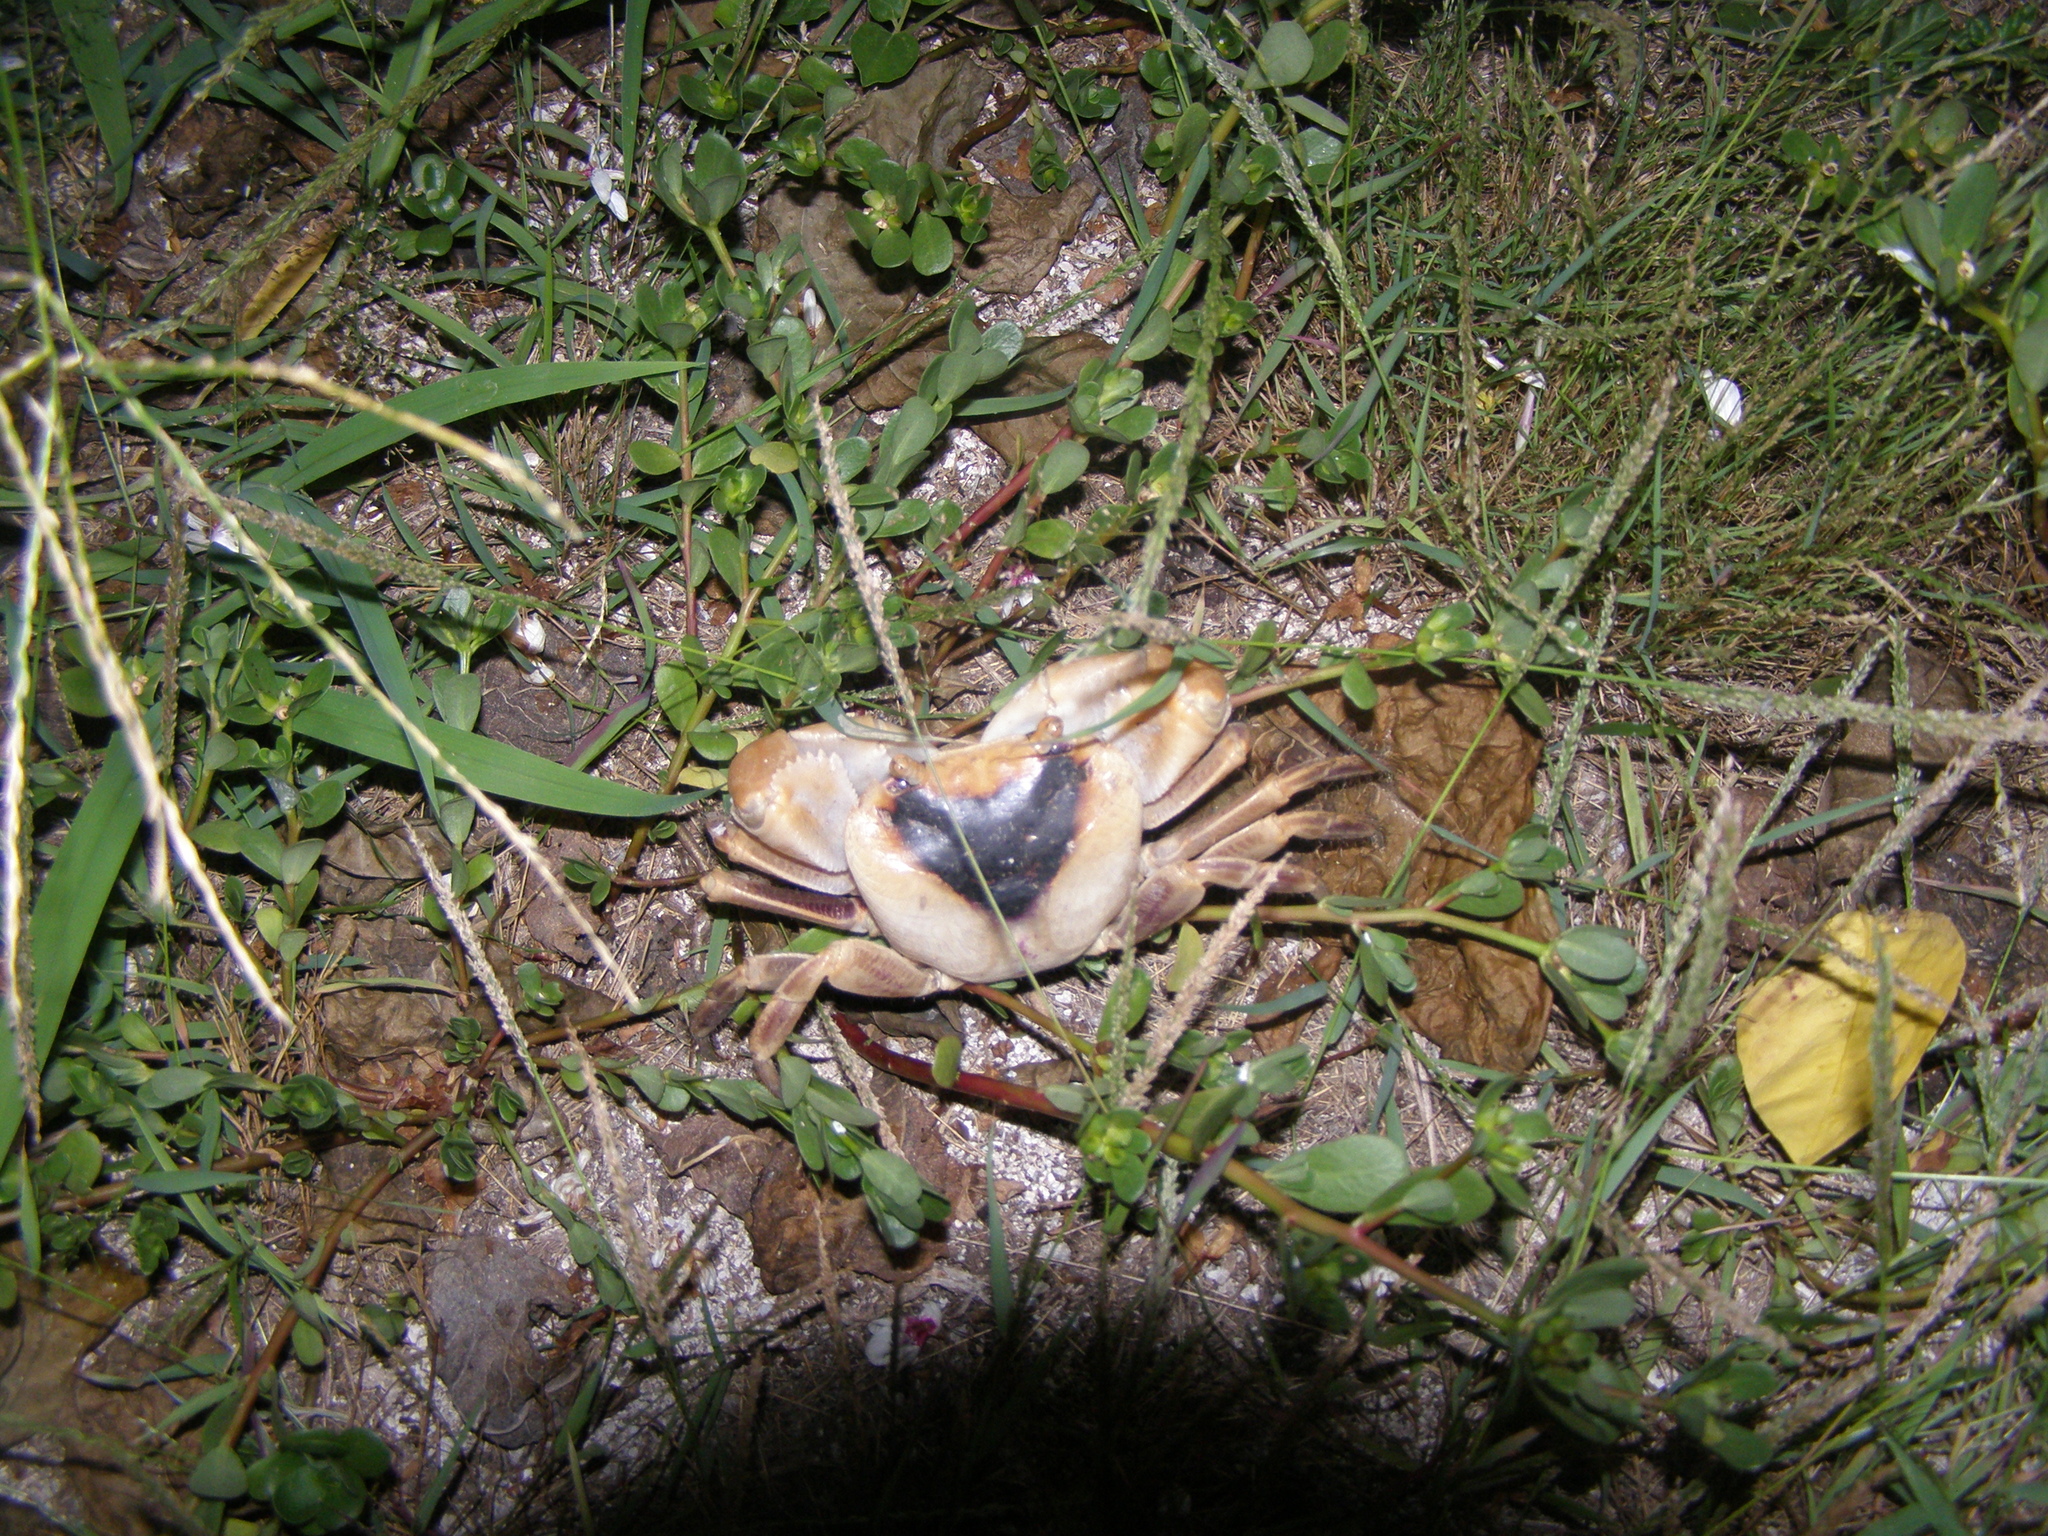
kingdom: Animalia
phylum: Arthropoda
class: Malacostraca
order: Decapoda
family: Grapsidae
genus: Geograpsus
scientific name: Geograpsus grayi
